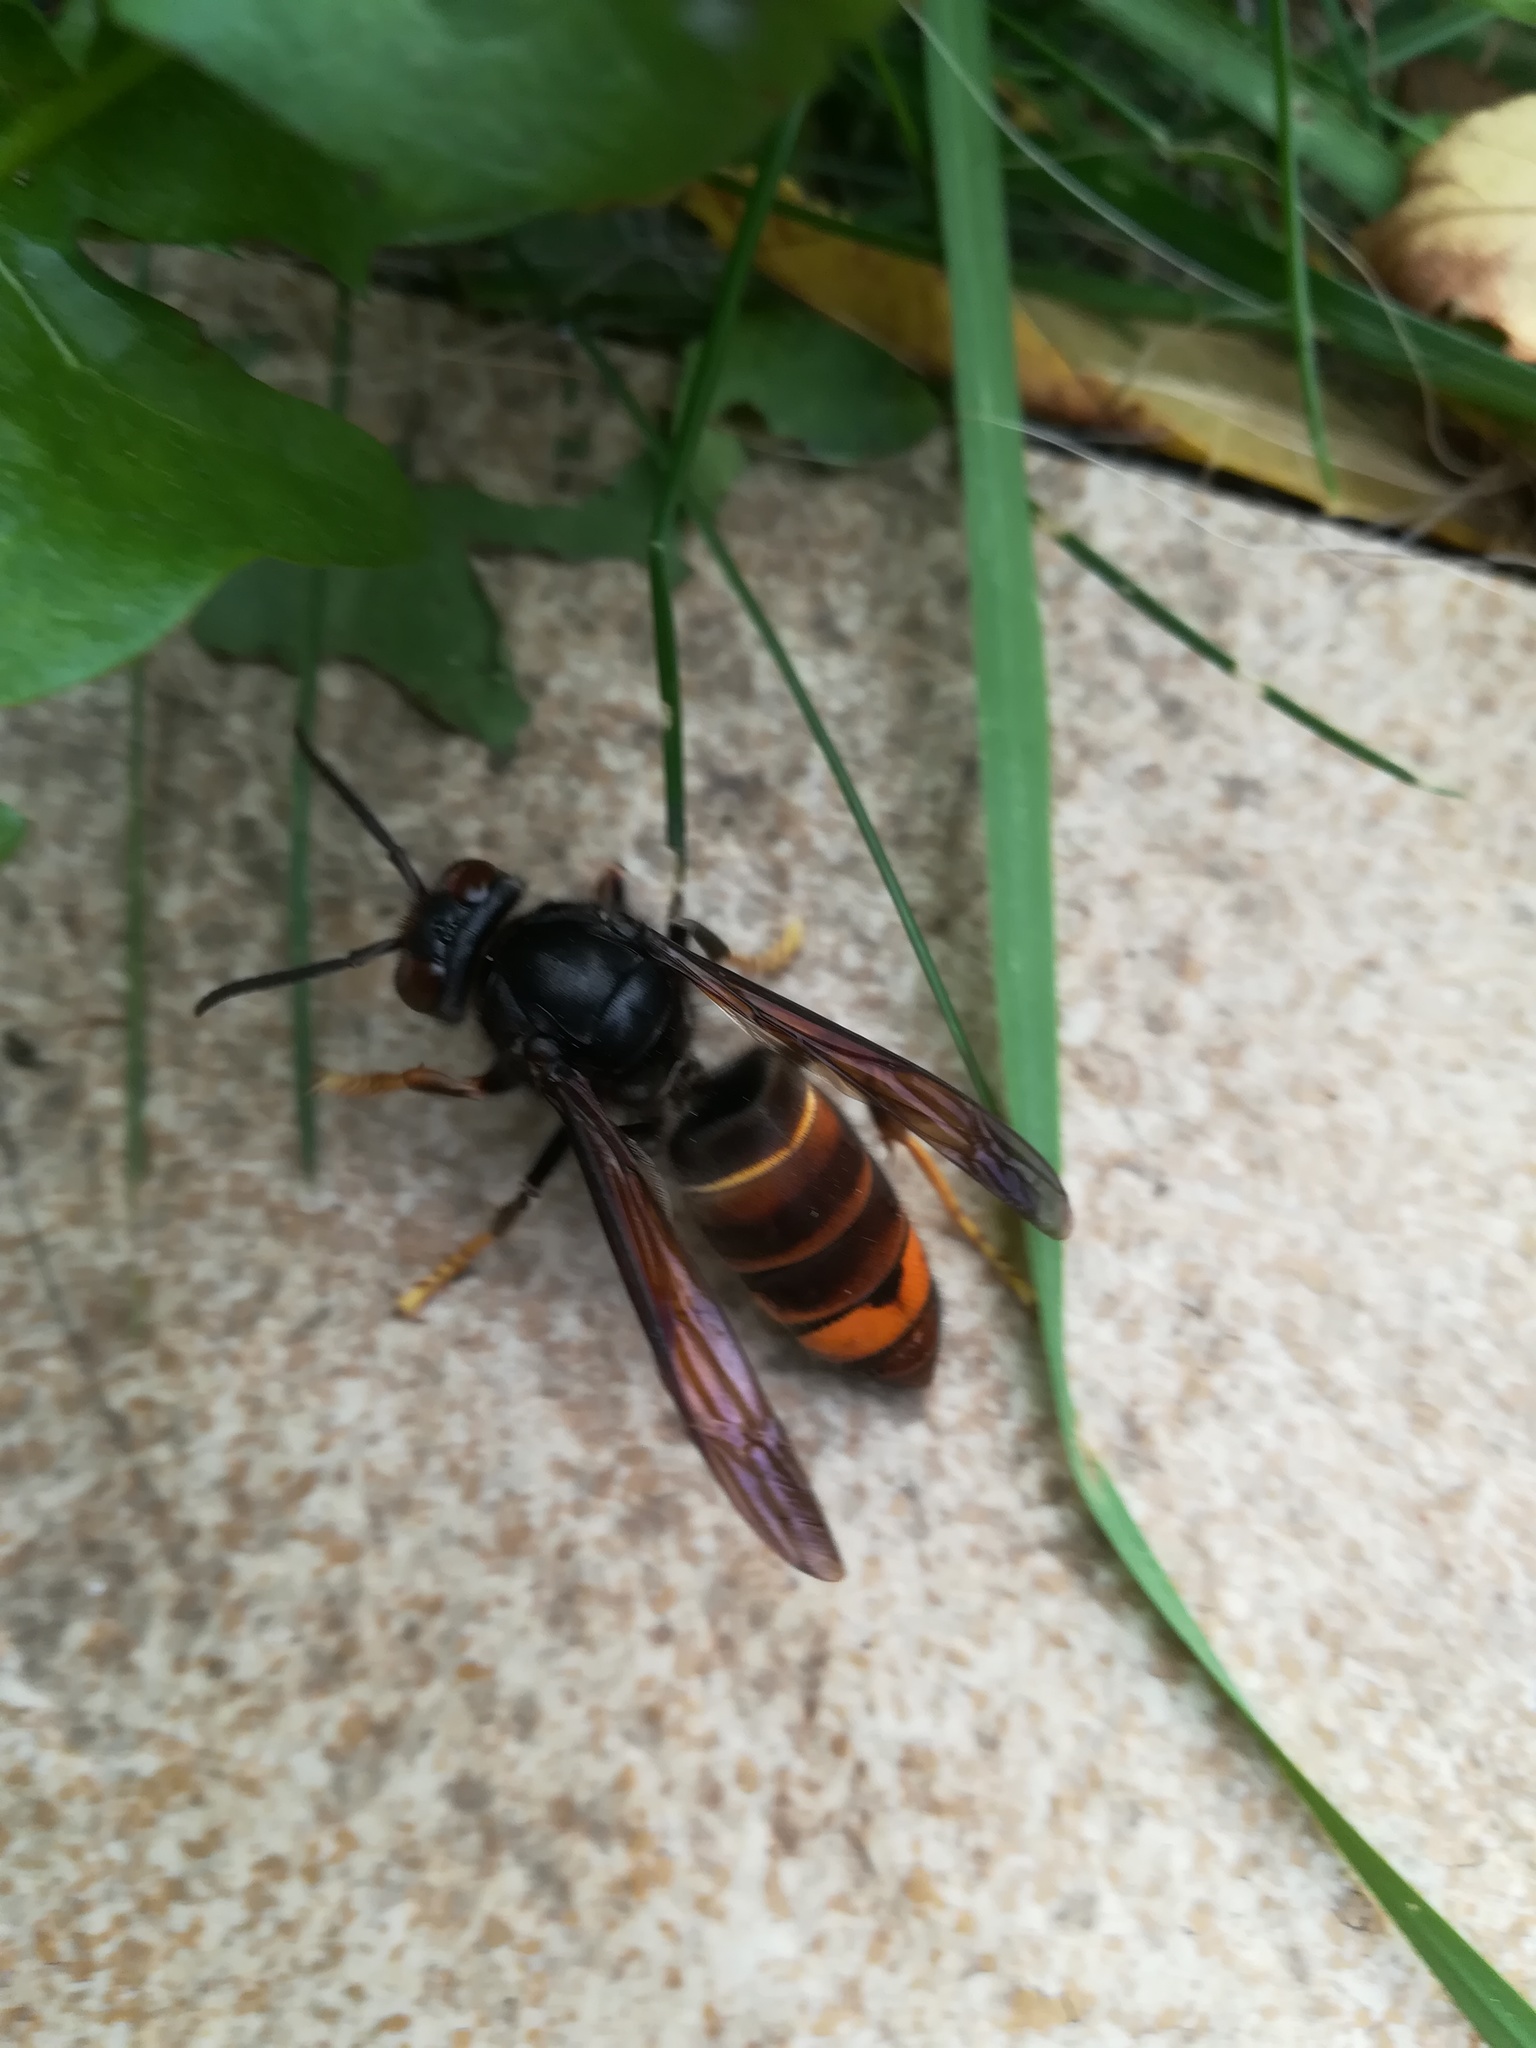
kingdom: Animalia
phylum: Arthropoda
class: Insecta
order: Hymenoptera
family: Vespidae
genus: Vespa
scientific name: Vespa velutina
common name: Asian hornet
